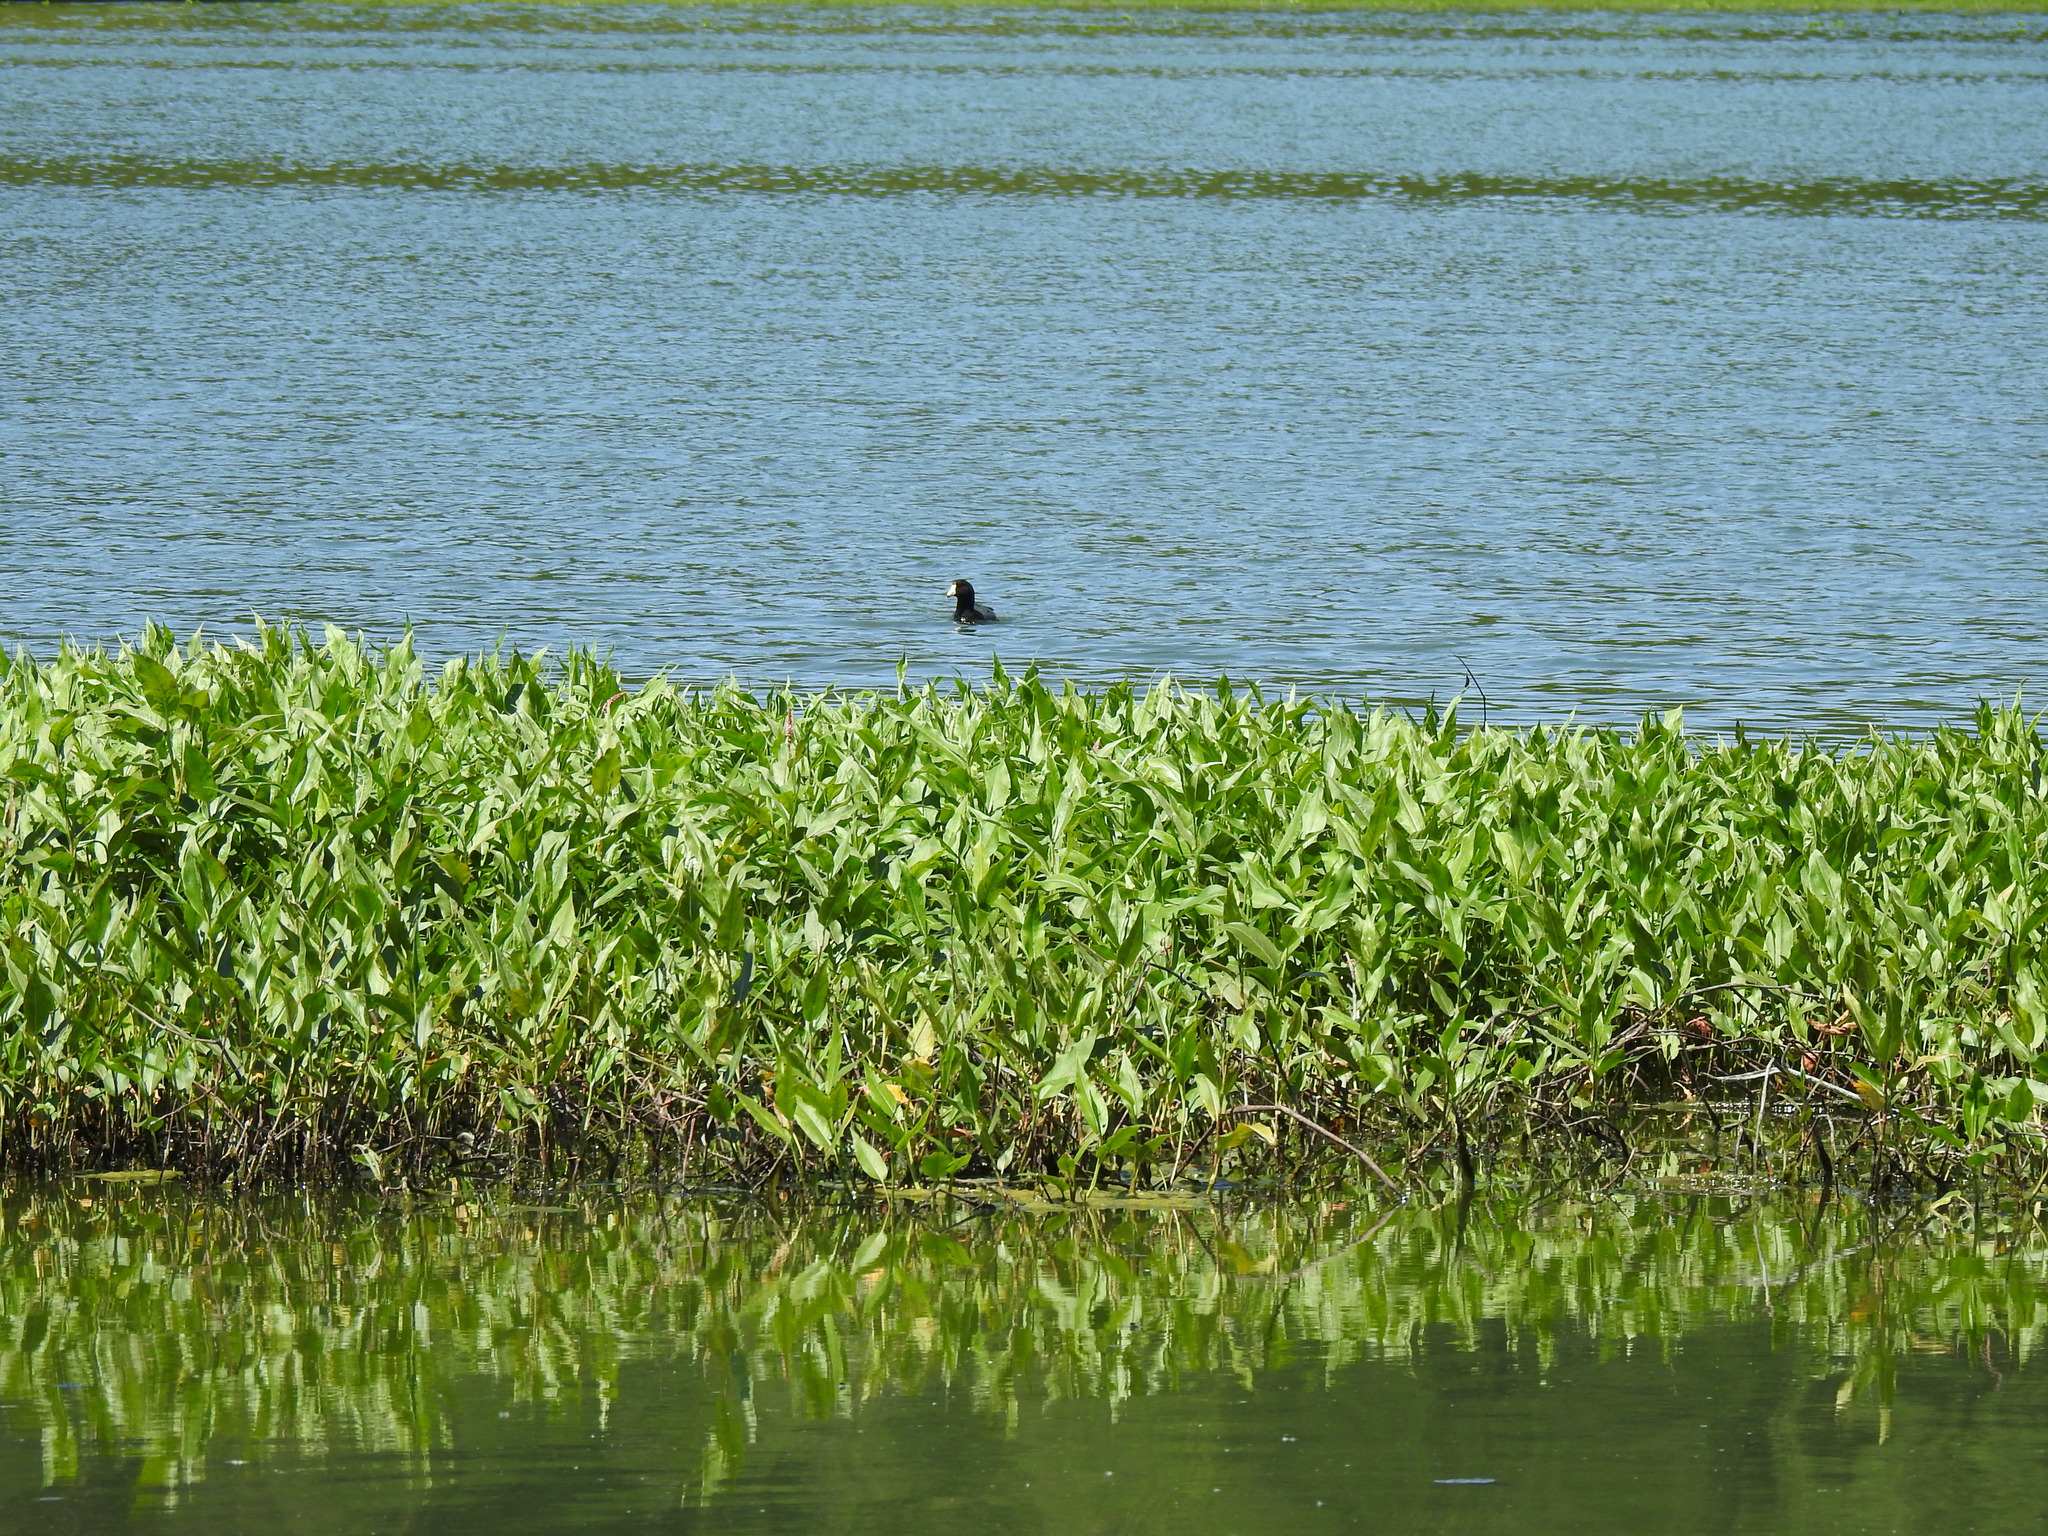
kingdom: Animalia
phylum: Chordata
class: Aves
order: Gruiformes
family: Rallidae
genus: Fulica
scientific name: Fulica americana
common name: American coot
